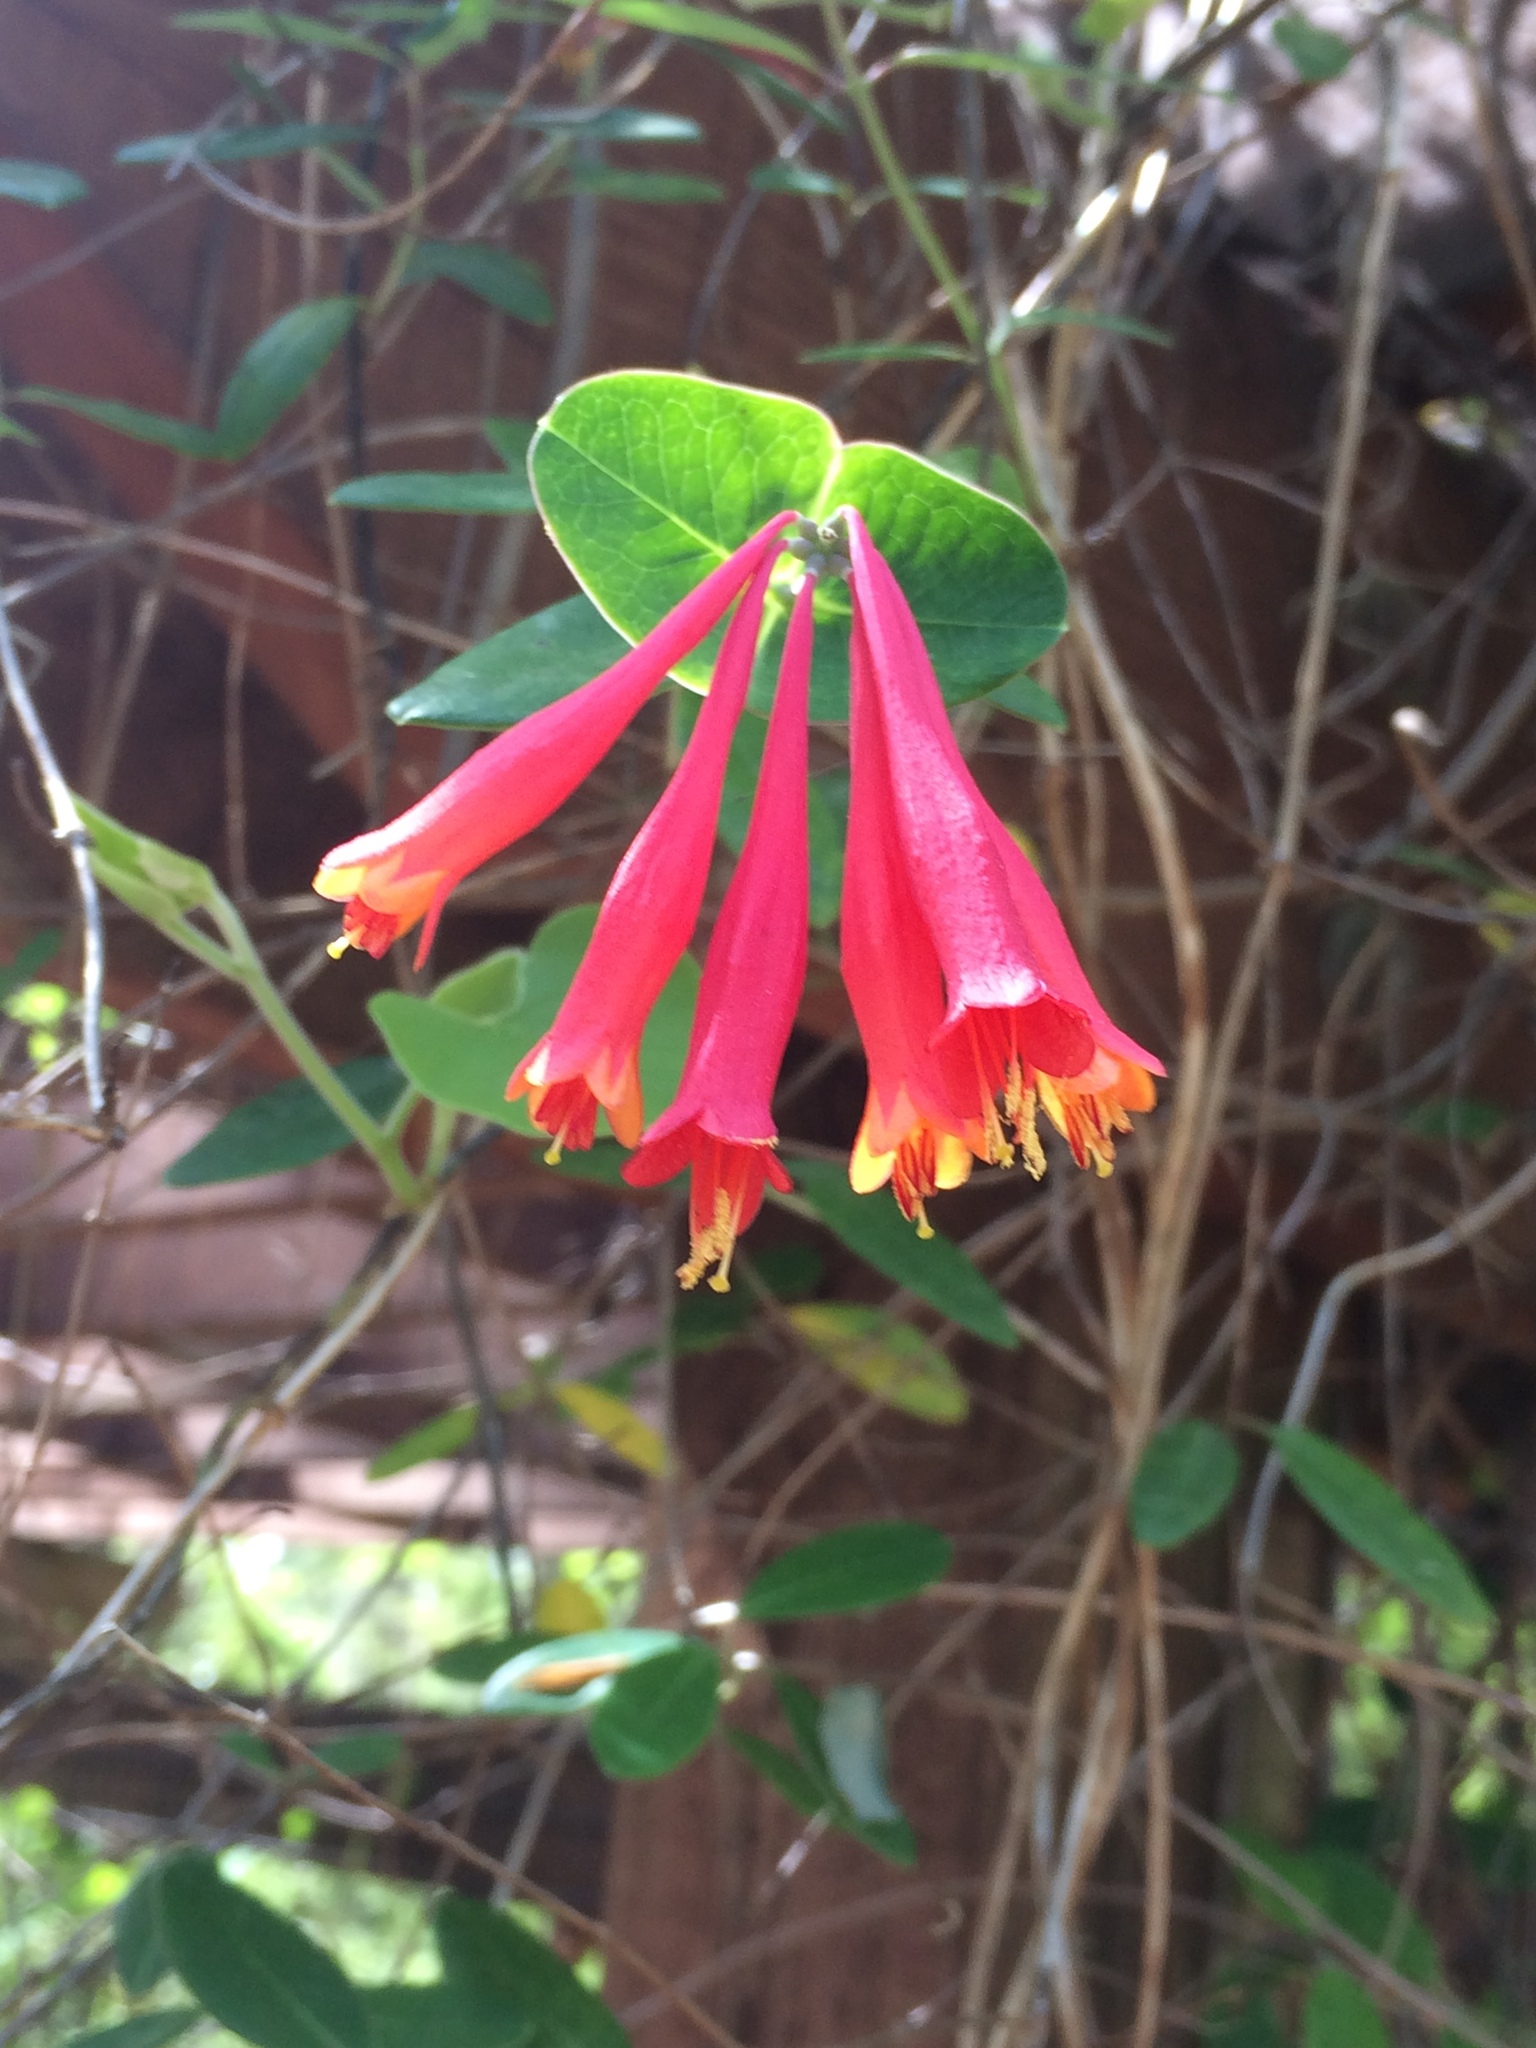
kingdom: Plantae
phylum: Tracheophyta
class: Magnoliopsida
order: Dipsacales
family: Caprifoliaceae
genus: Lonicera
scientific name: Lonicera sempervirens
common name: Coral honeysuckle
